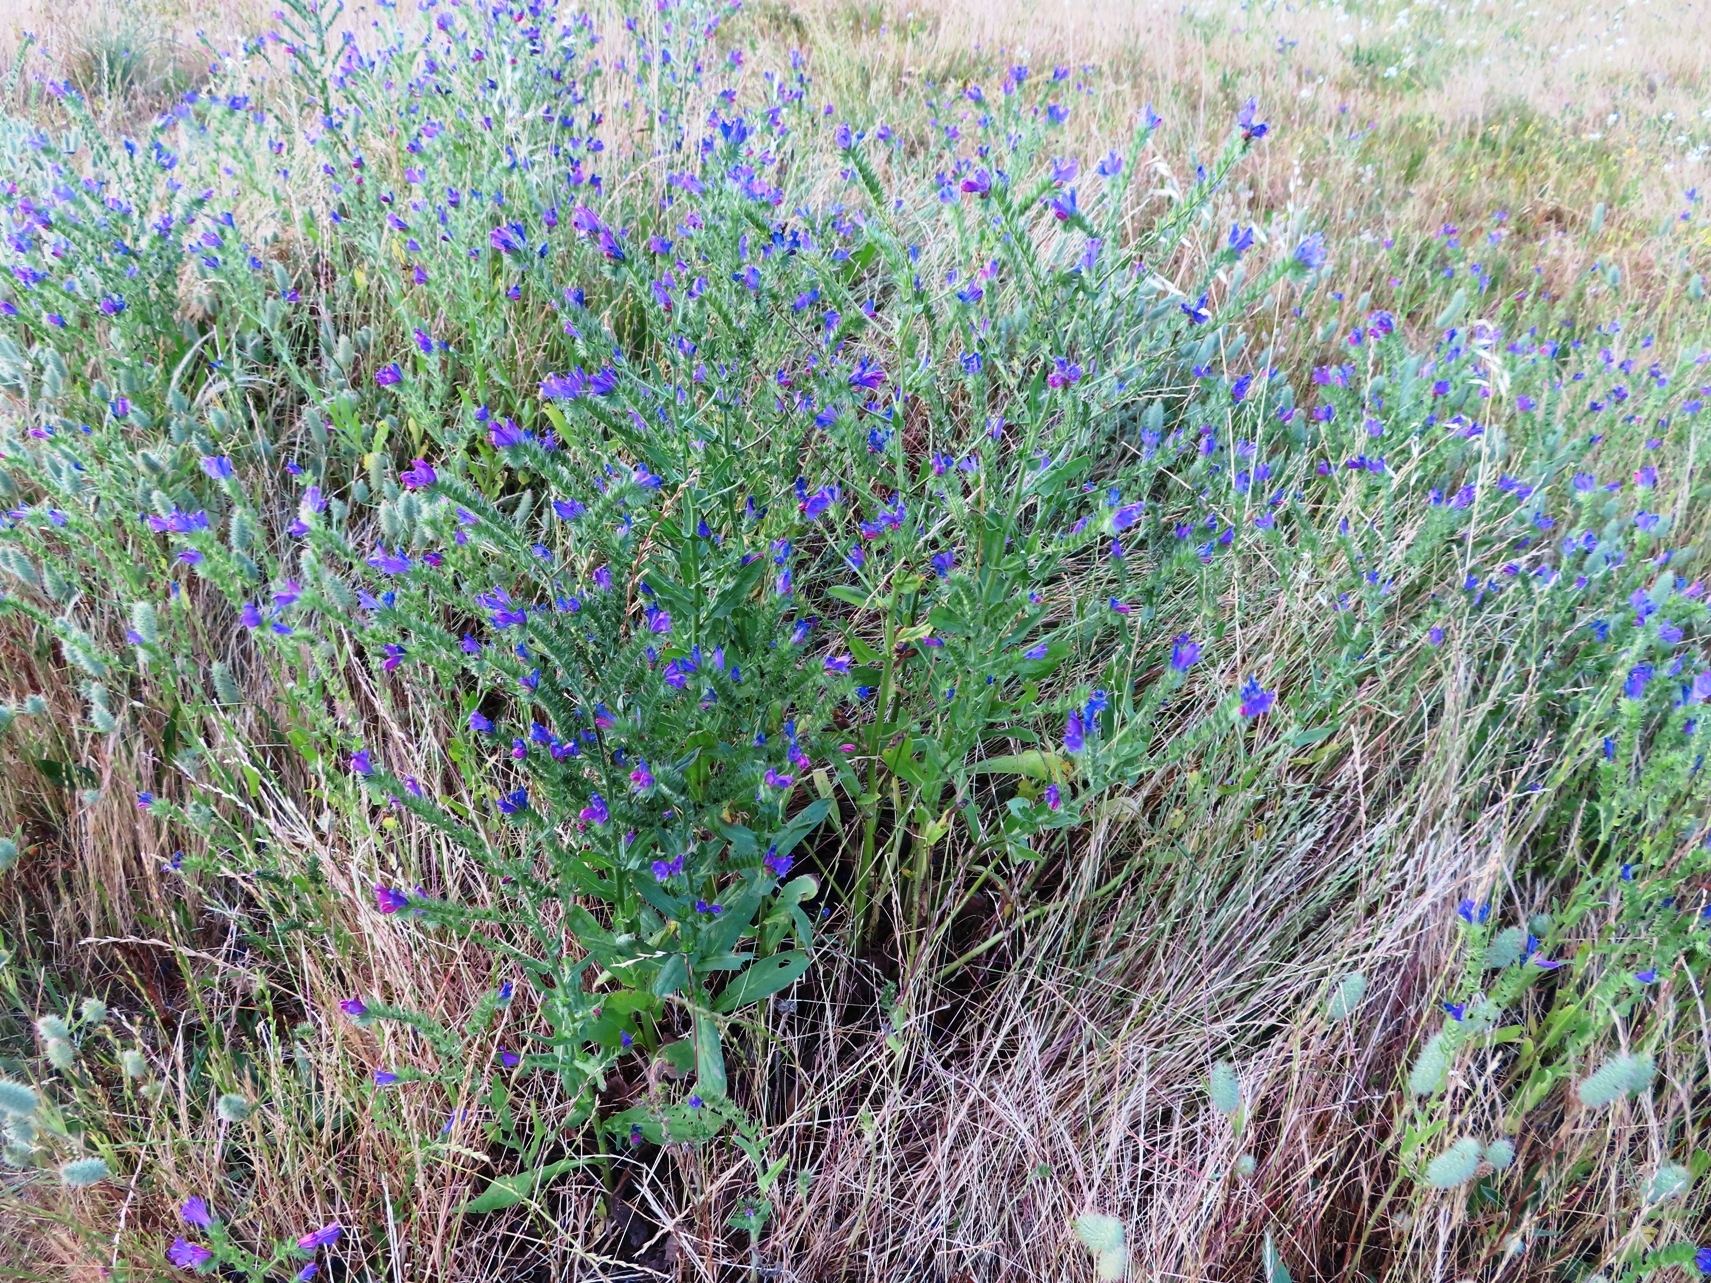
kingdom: Plantae
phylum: Tracheophyta
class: Magnoliopsida
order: Boraginales
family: Boraginaceae
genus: Echium
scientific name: Echium plantagineum
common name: Purple viper's-bugloss
